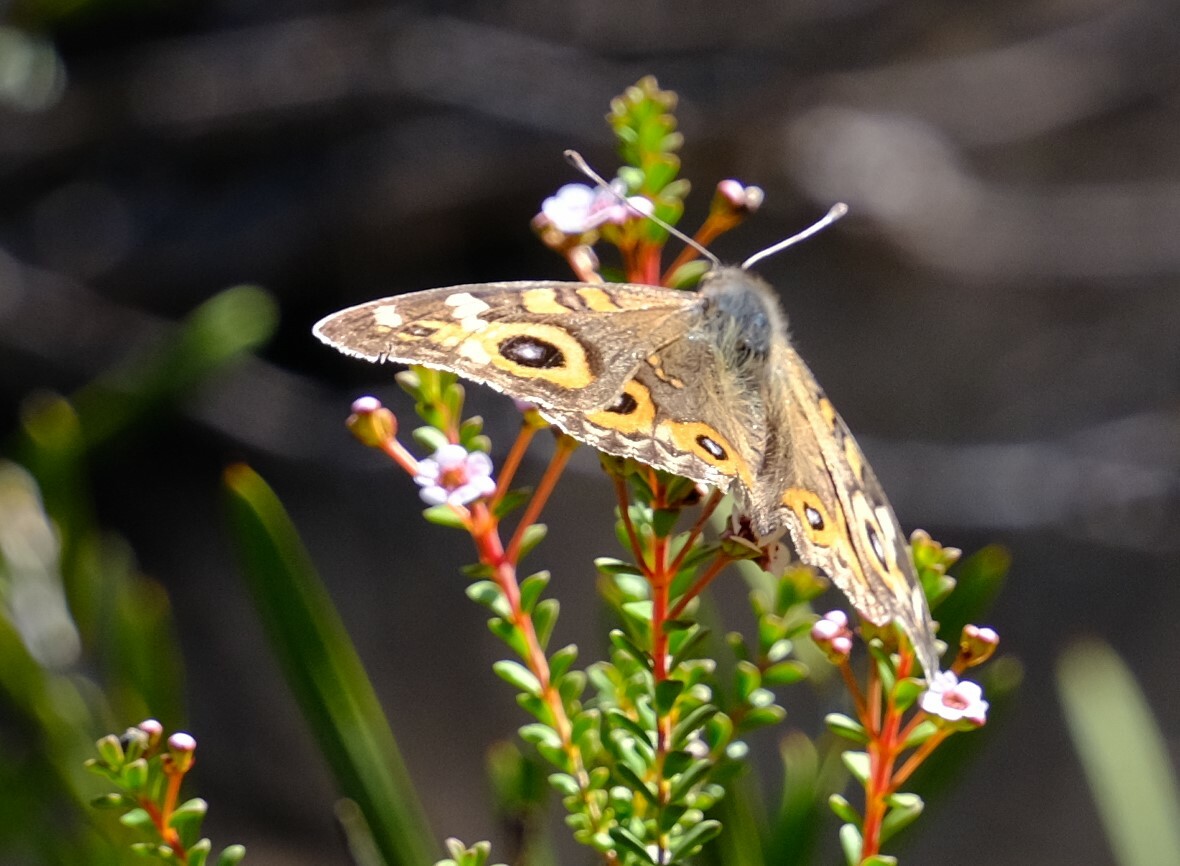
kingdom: Animalia
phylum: Arthropoda
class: Insecta
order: Lepidoptera
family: Nymphalidae
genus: Junonia
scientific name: Junonia villida
